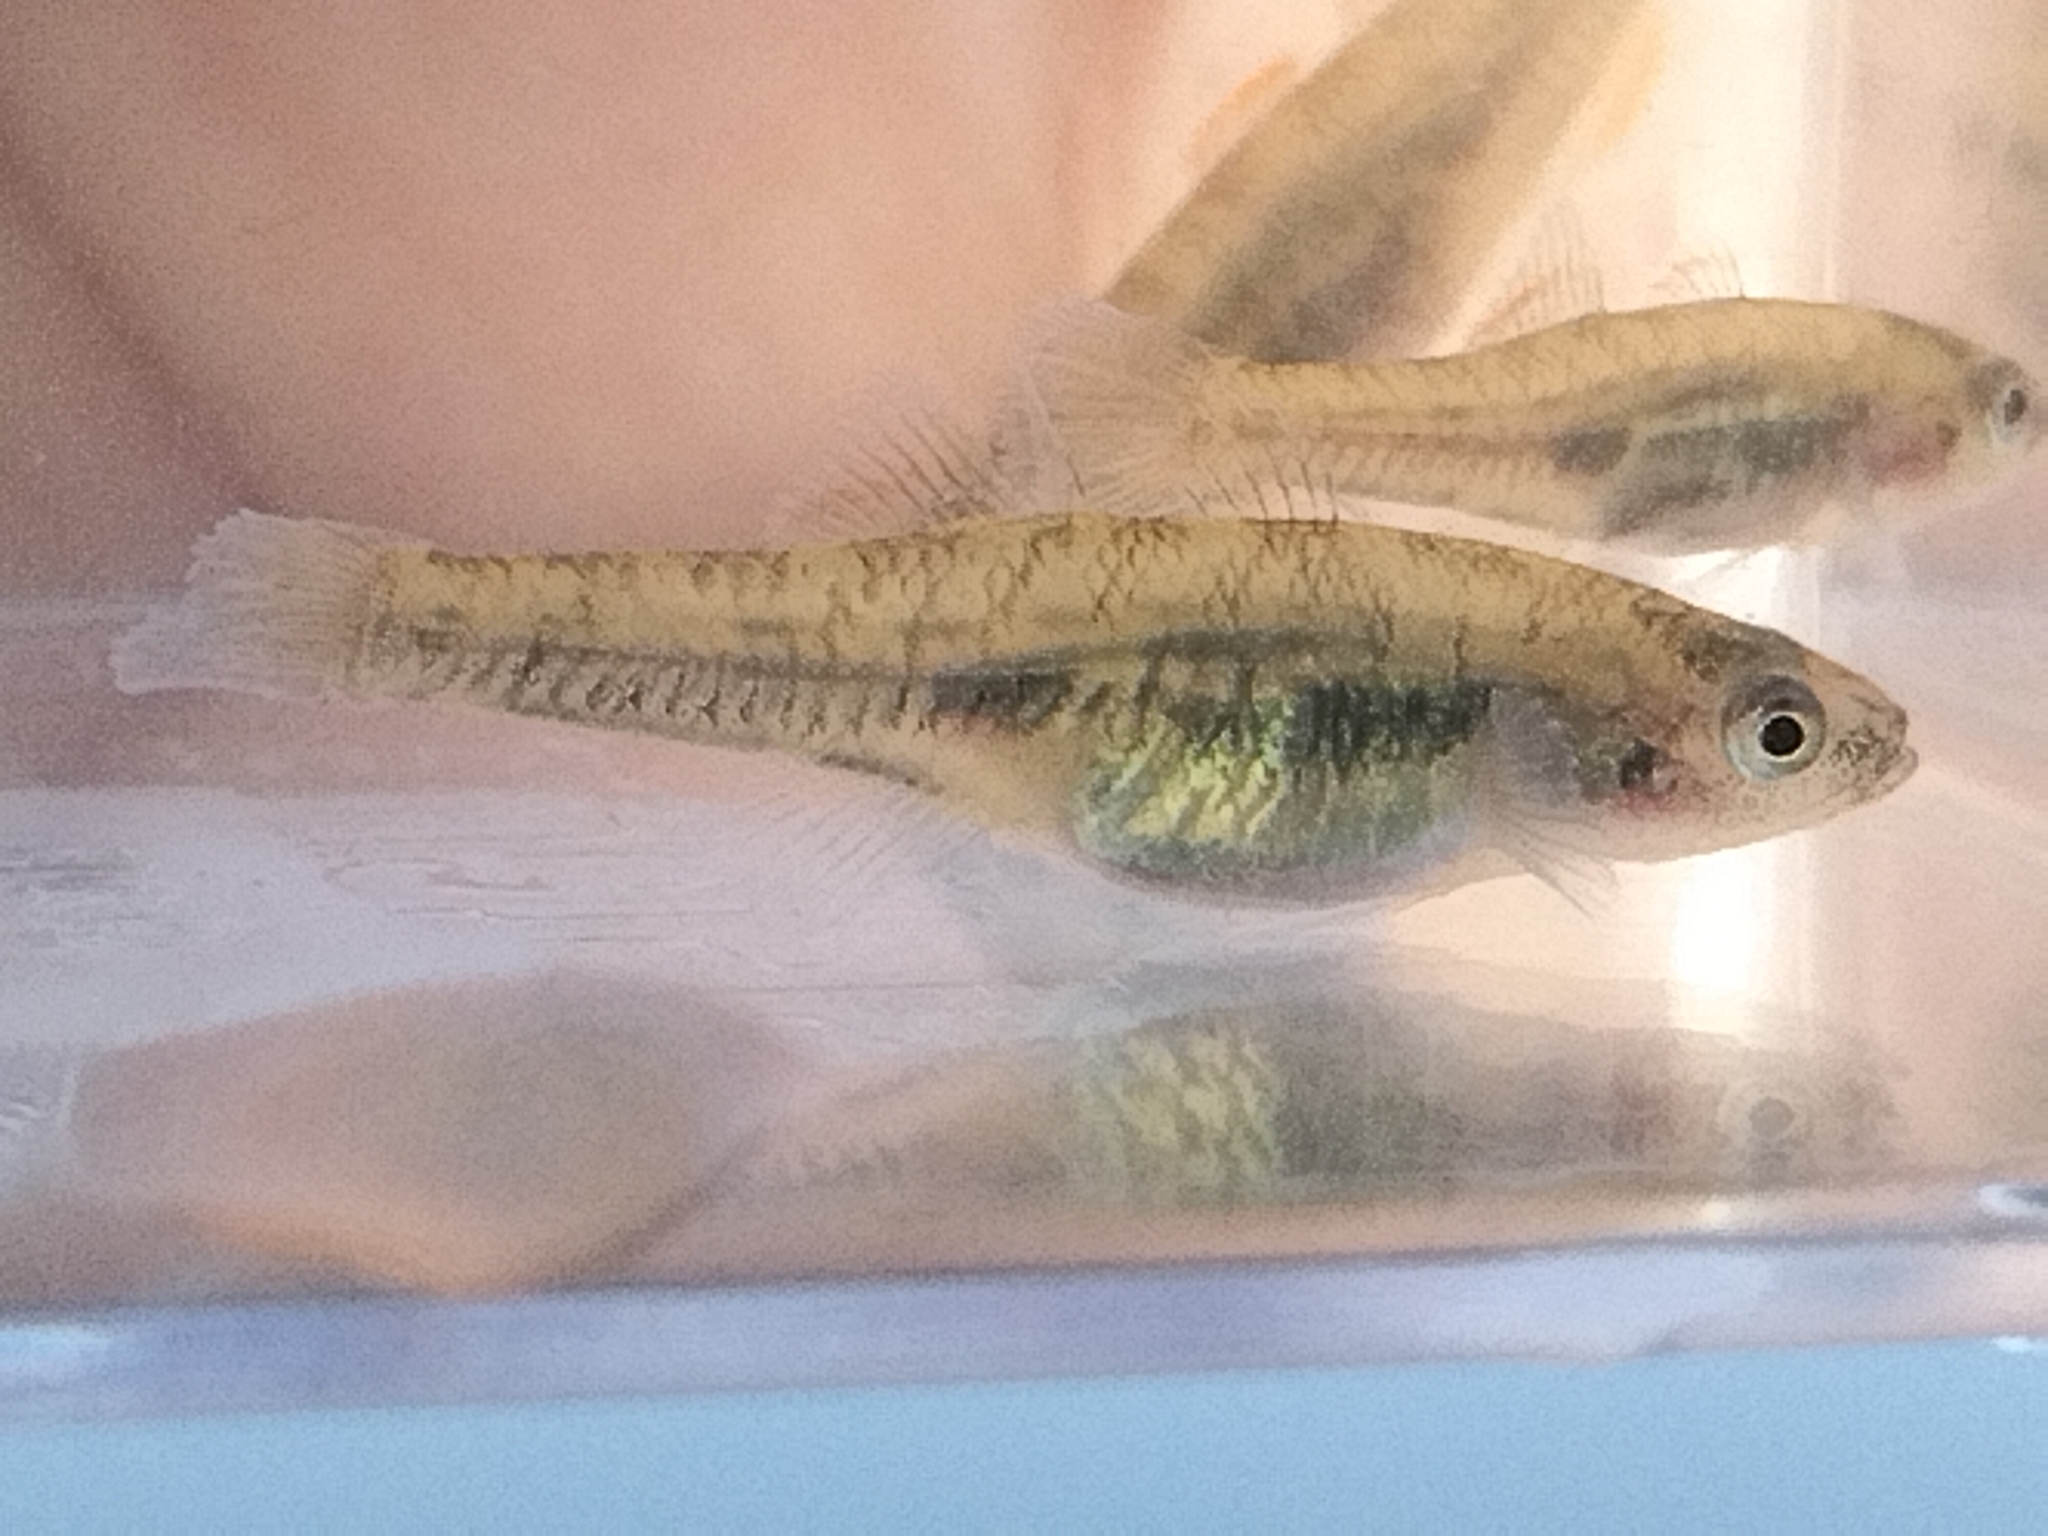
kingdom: Animalia
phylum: Chordata
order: Perciformes
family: Eleotridae
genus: Hypseleotris
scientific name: Hypseleotris
